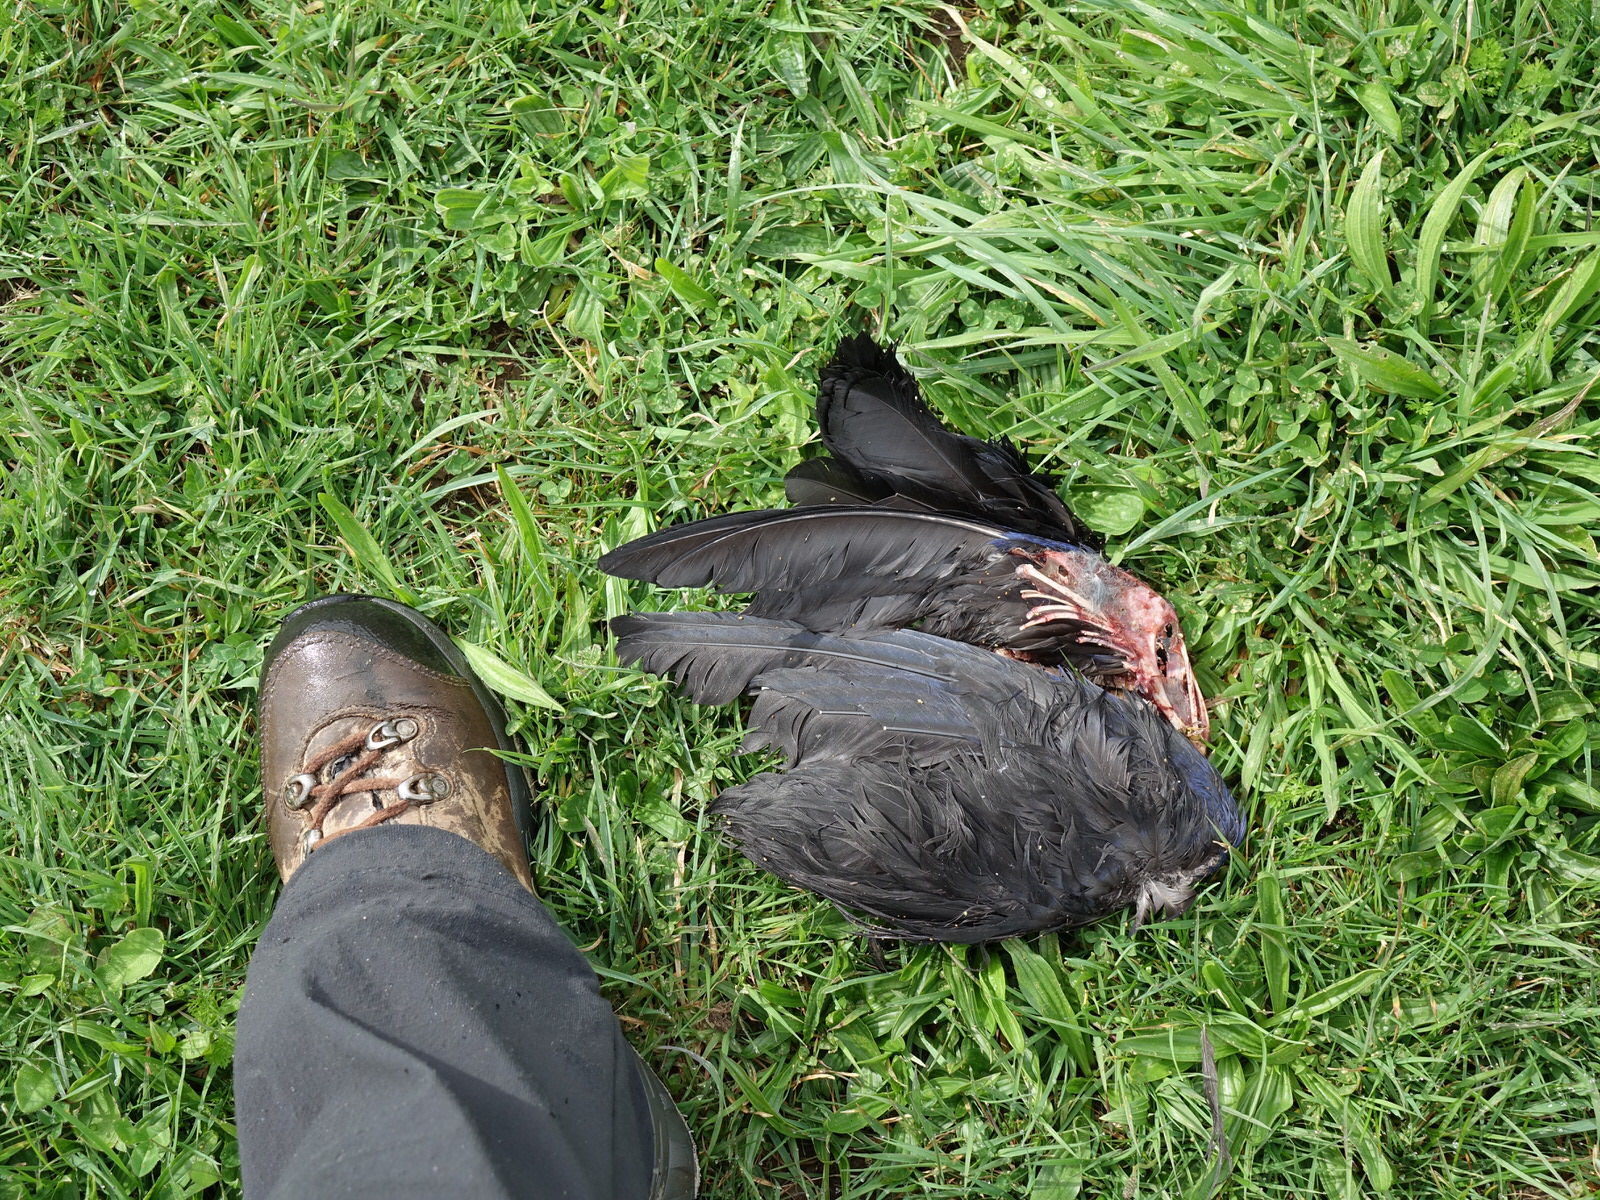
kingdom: Animalia
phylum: Chordata
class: Aves
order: Gruiformes
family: Rallidae
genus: Porphyrio
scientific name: Porphyrio melanotus
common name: Australasian swamphen
